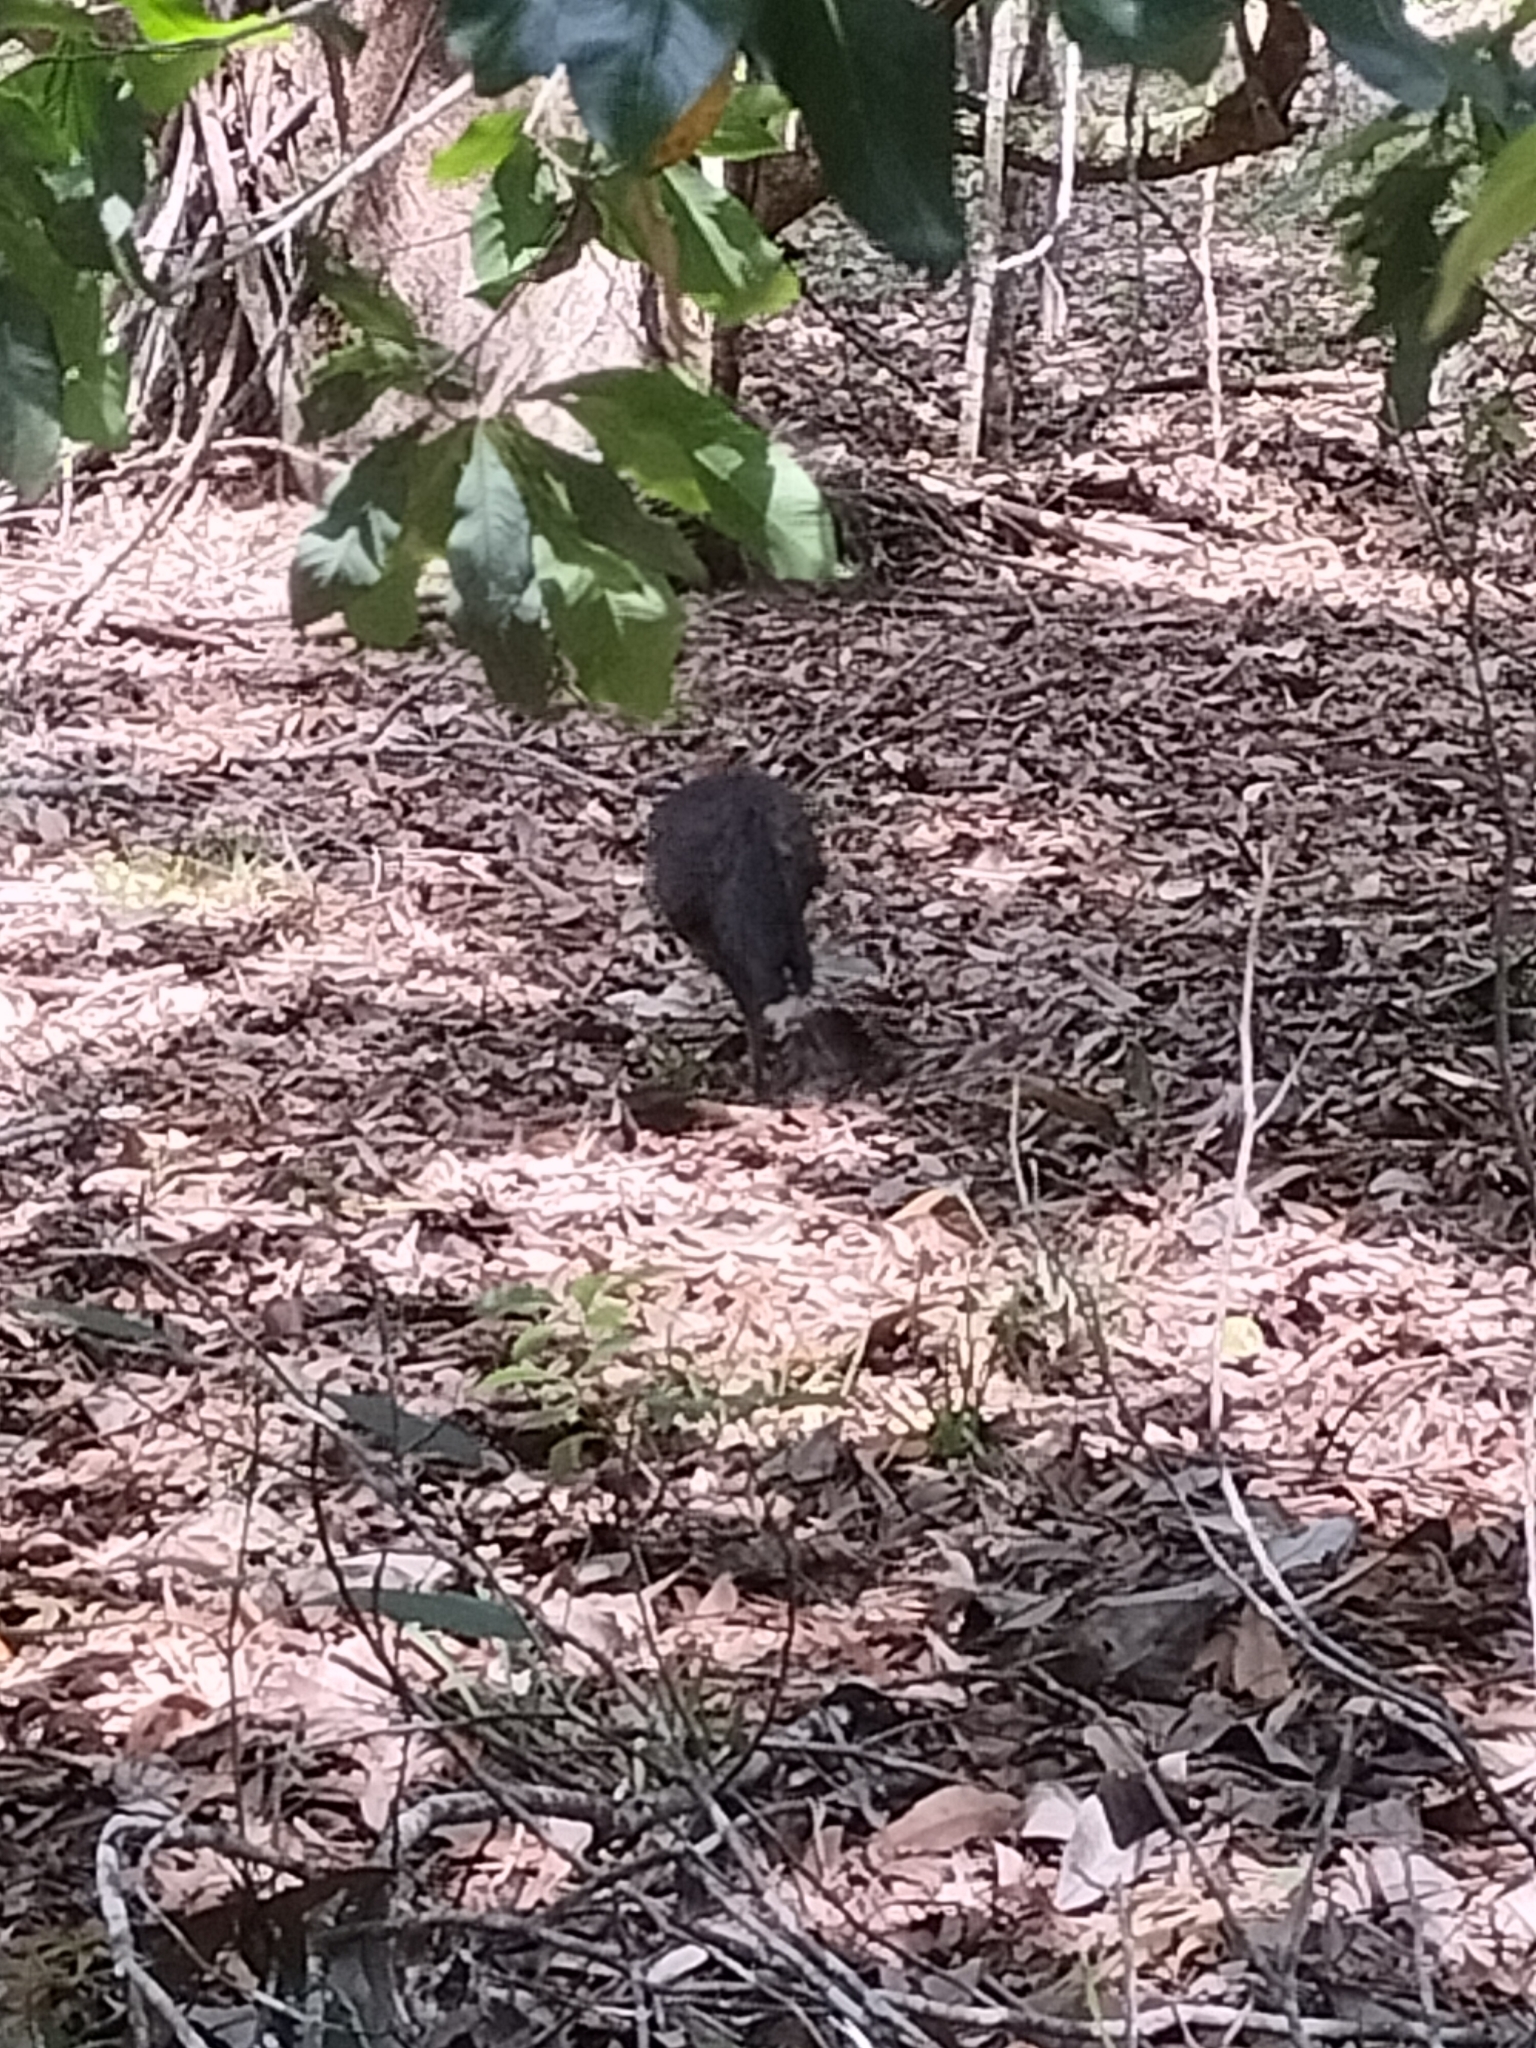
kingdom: Animalia
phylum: Chordata
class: Aves
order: Galliformes
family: Megapodiidae
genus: Alectura
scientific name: Alectura lathami
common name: Australian brushturkey
